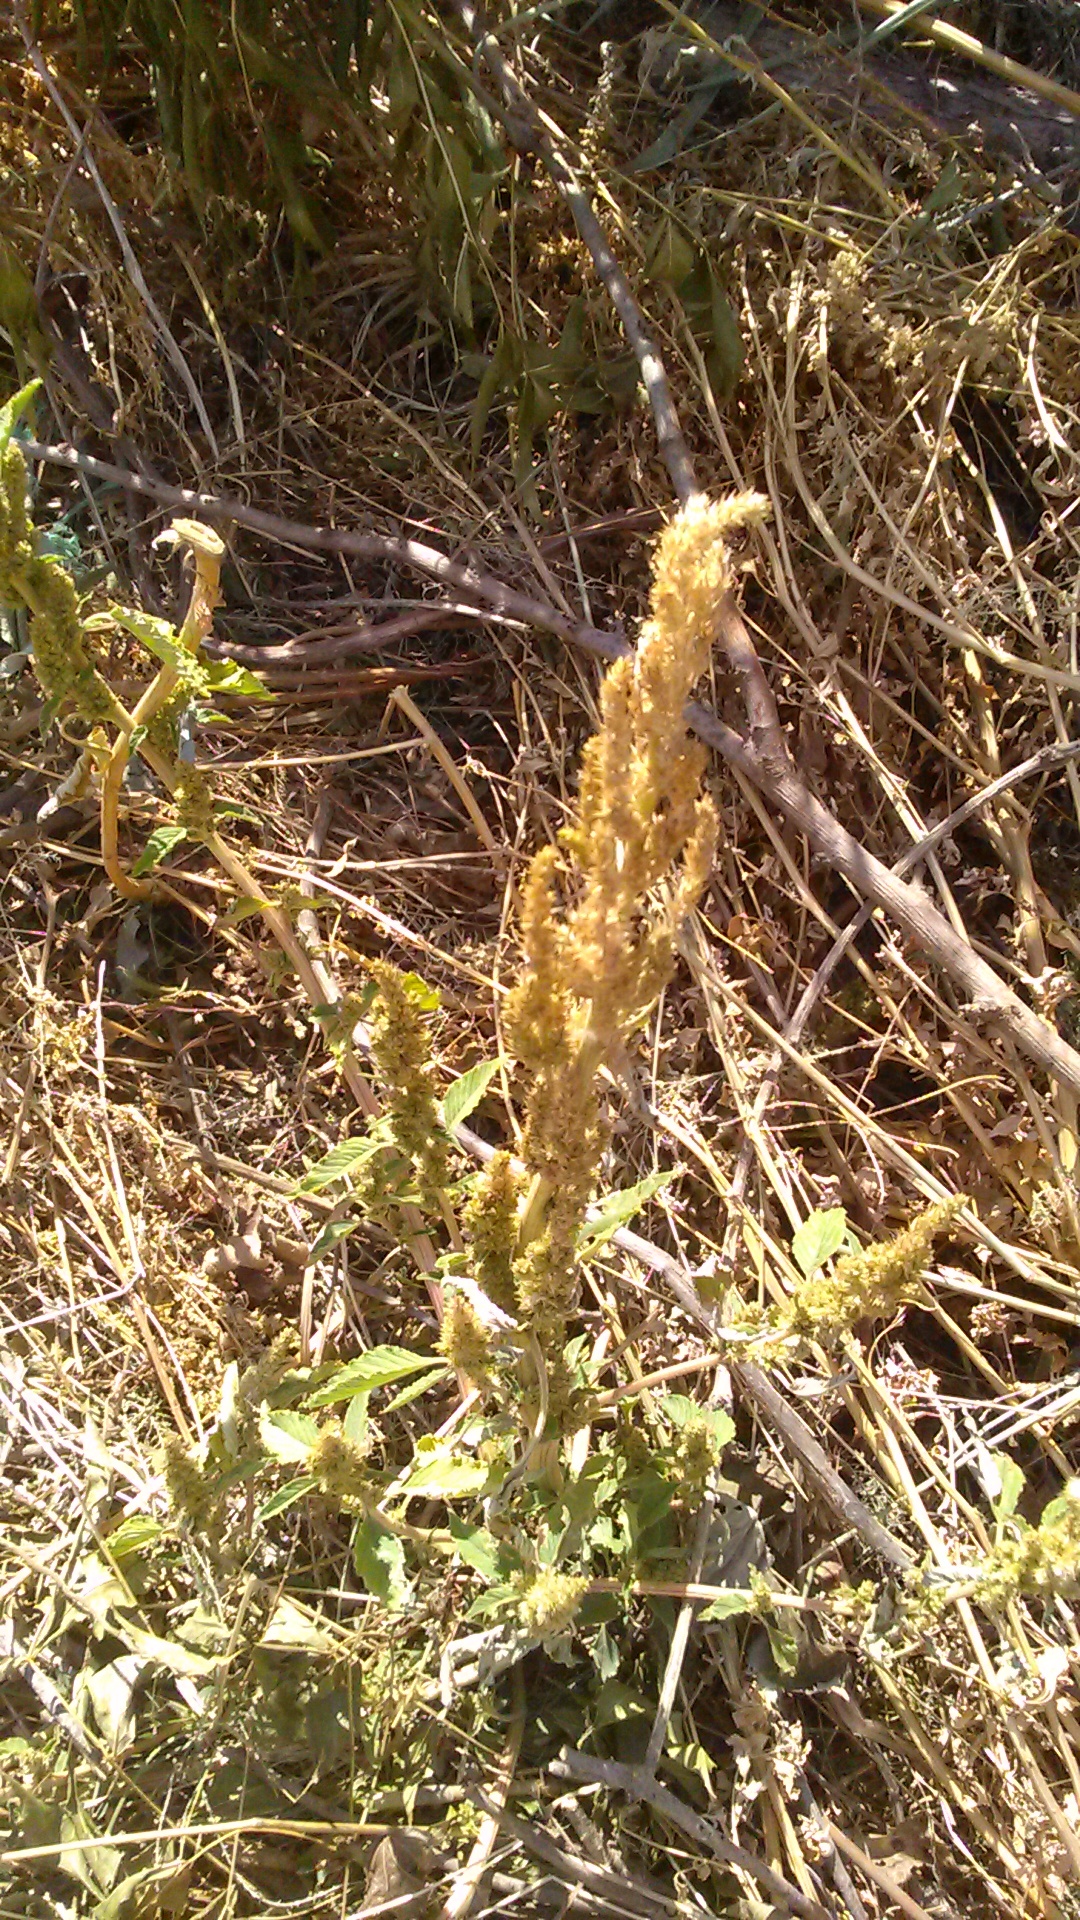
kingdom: Plantae
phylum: Tracheophyta
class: Magnoliopsida
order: Caryophyllales
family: Amaranthaceae
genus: Amaranthus
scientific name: Amaranthus retroflexus
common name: Redroot amaranth
